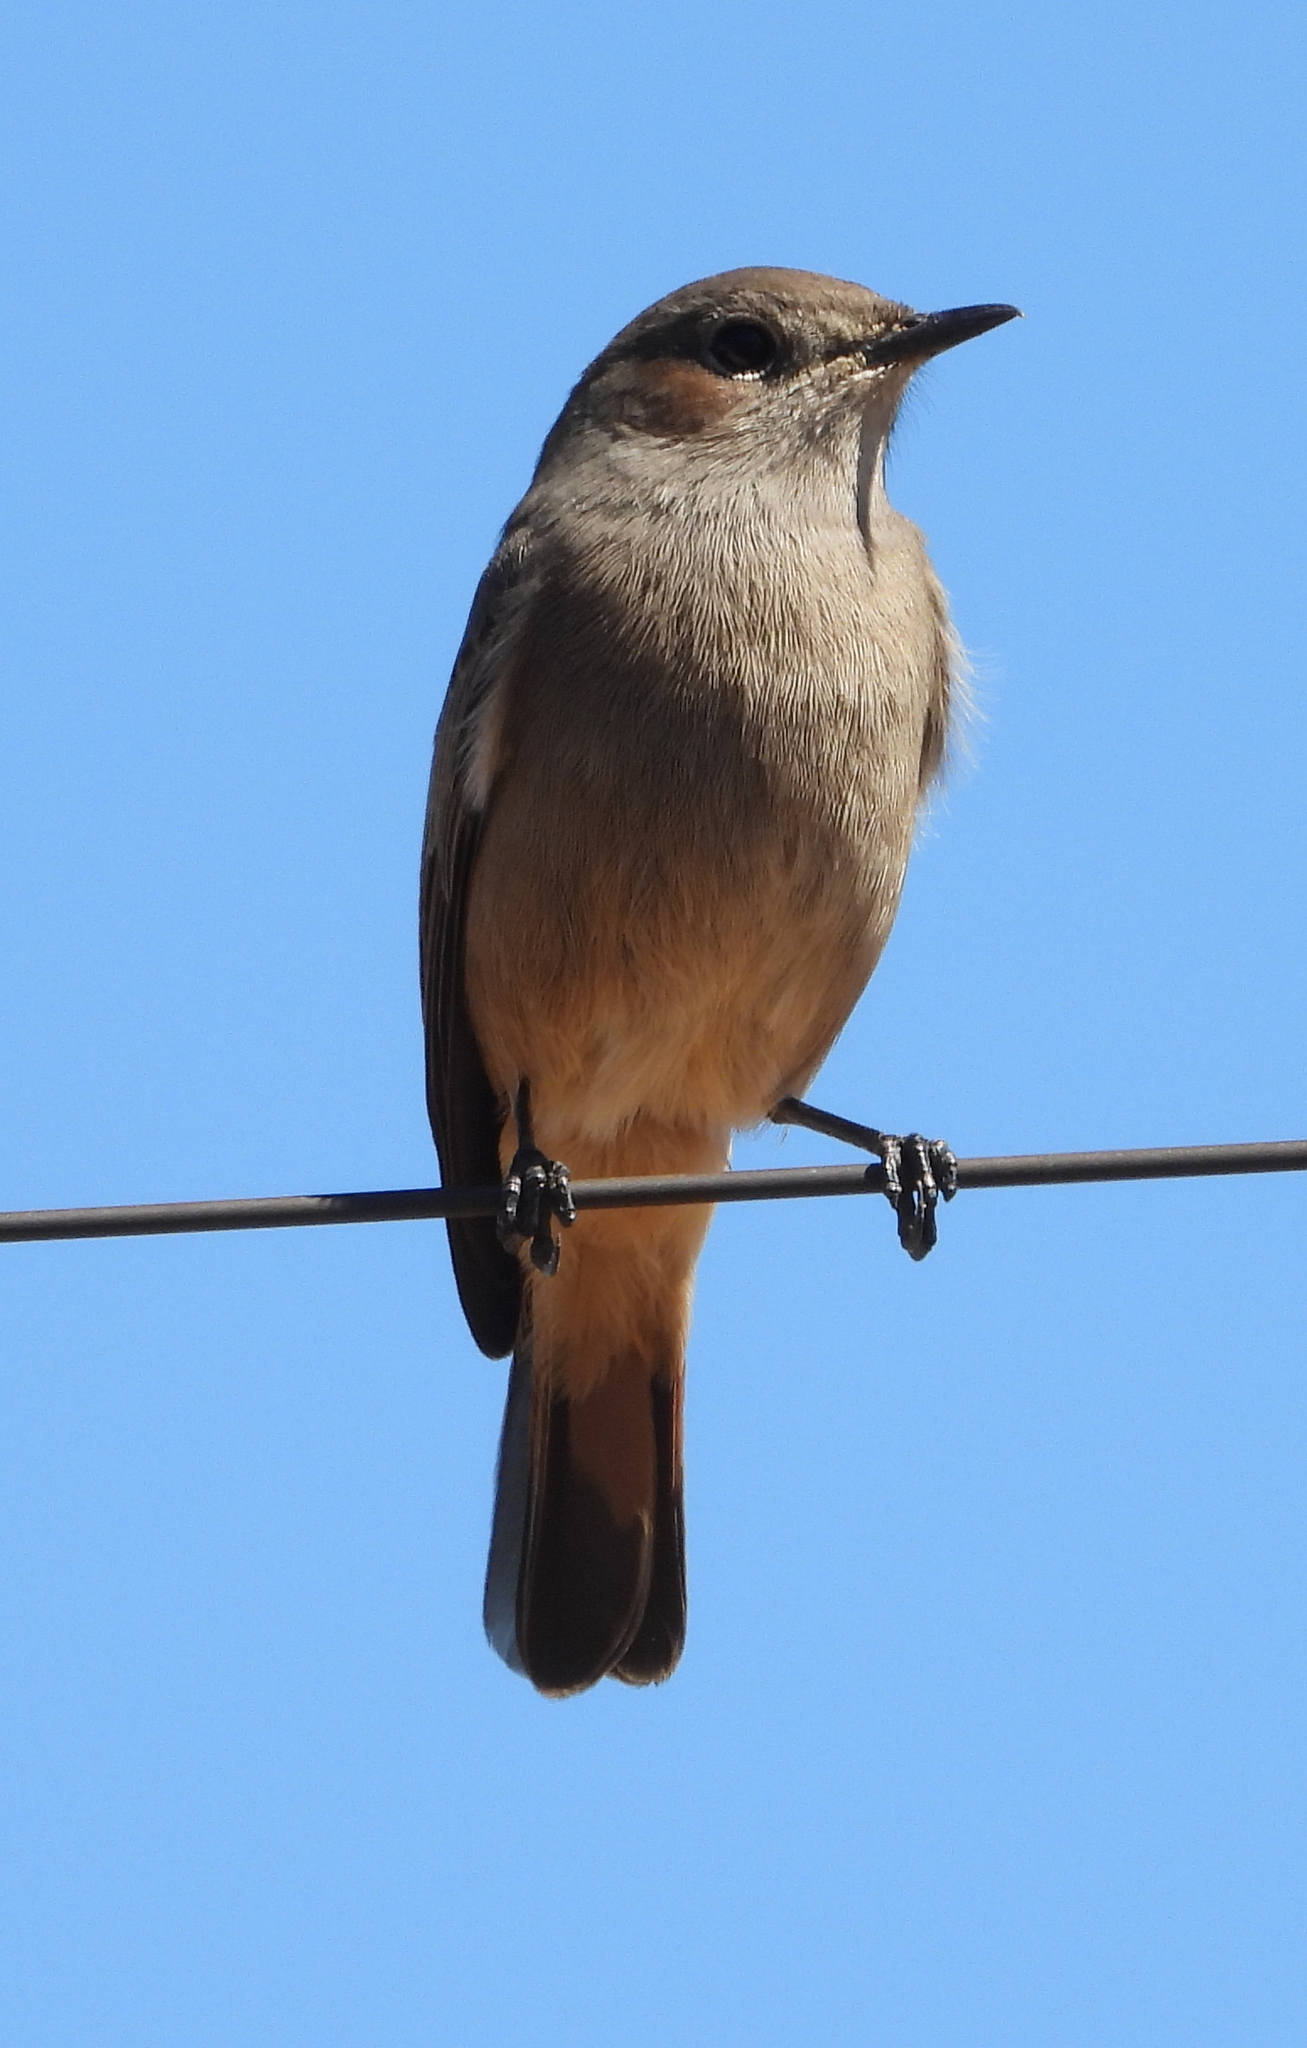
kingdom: Animalia
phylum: Chordata
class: Aves
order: Passeriformes
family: Muscicapidae
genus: Oenanthe
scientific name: Oenanthe familiaris
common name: Familiar chat
